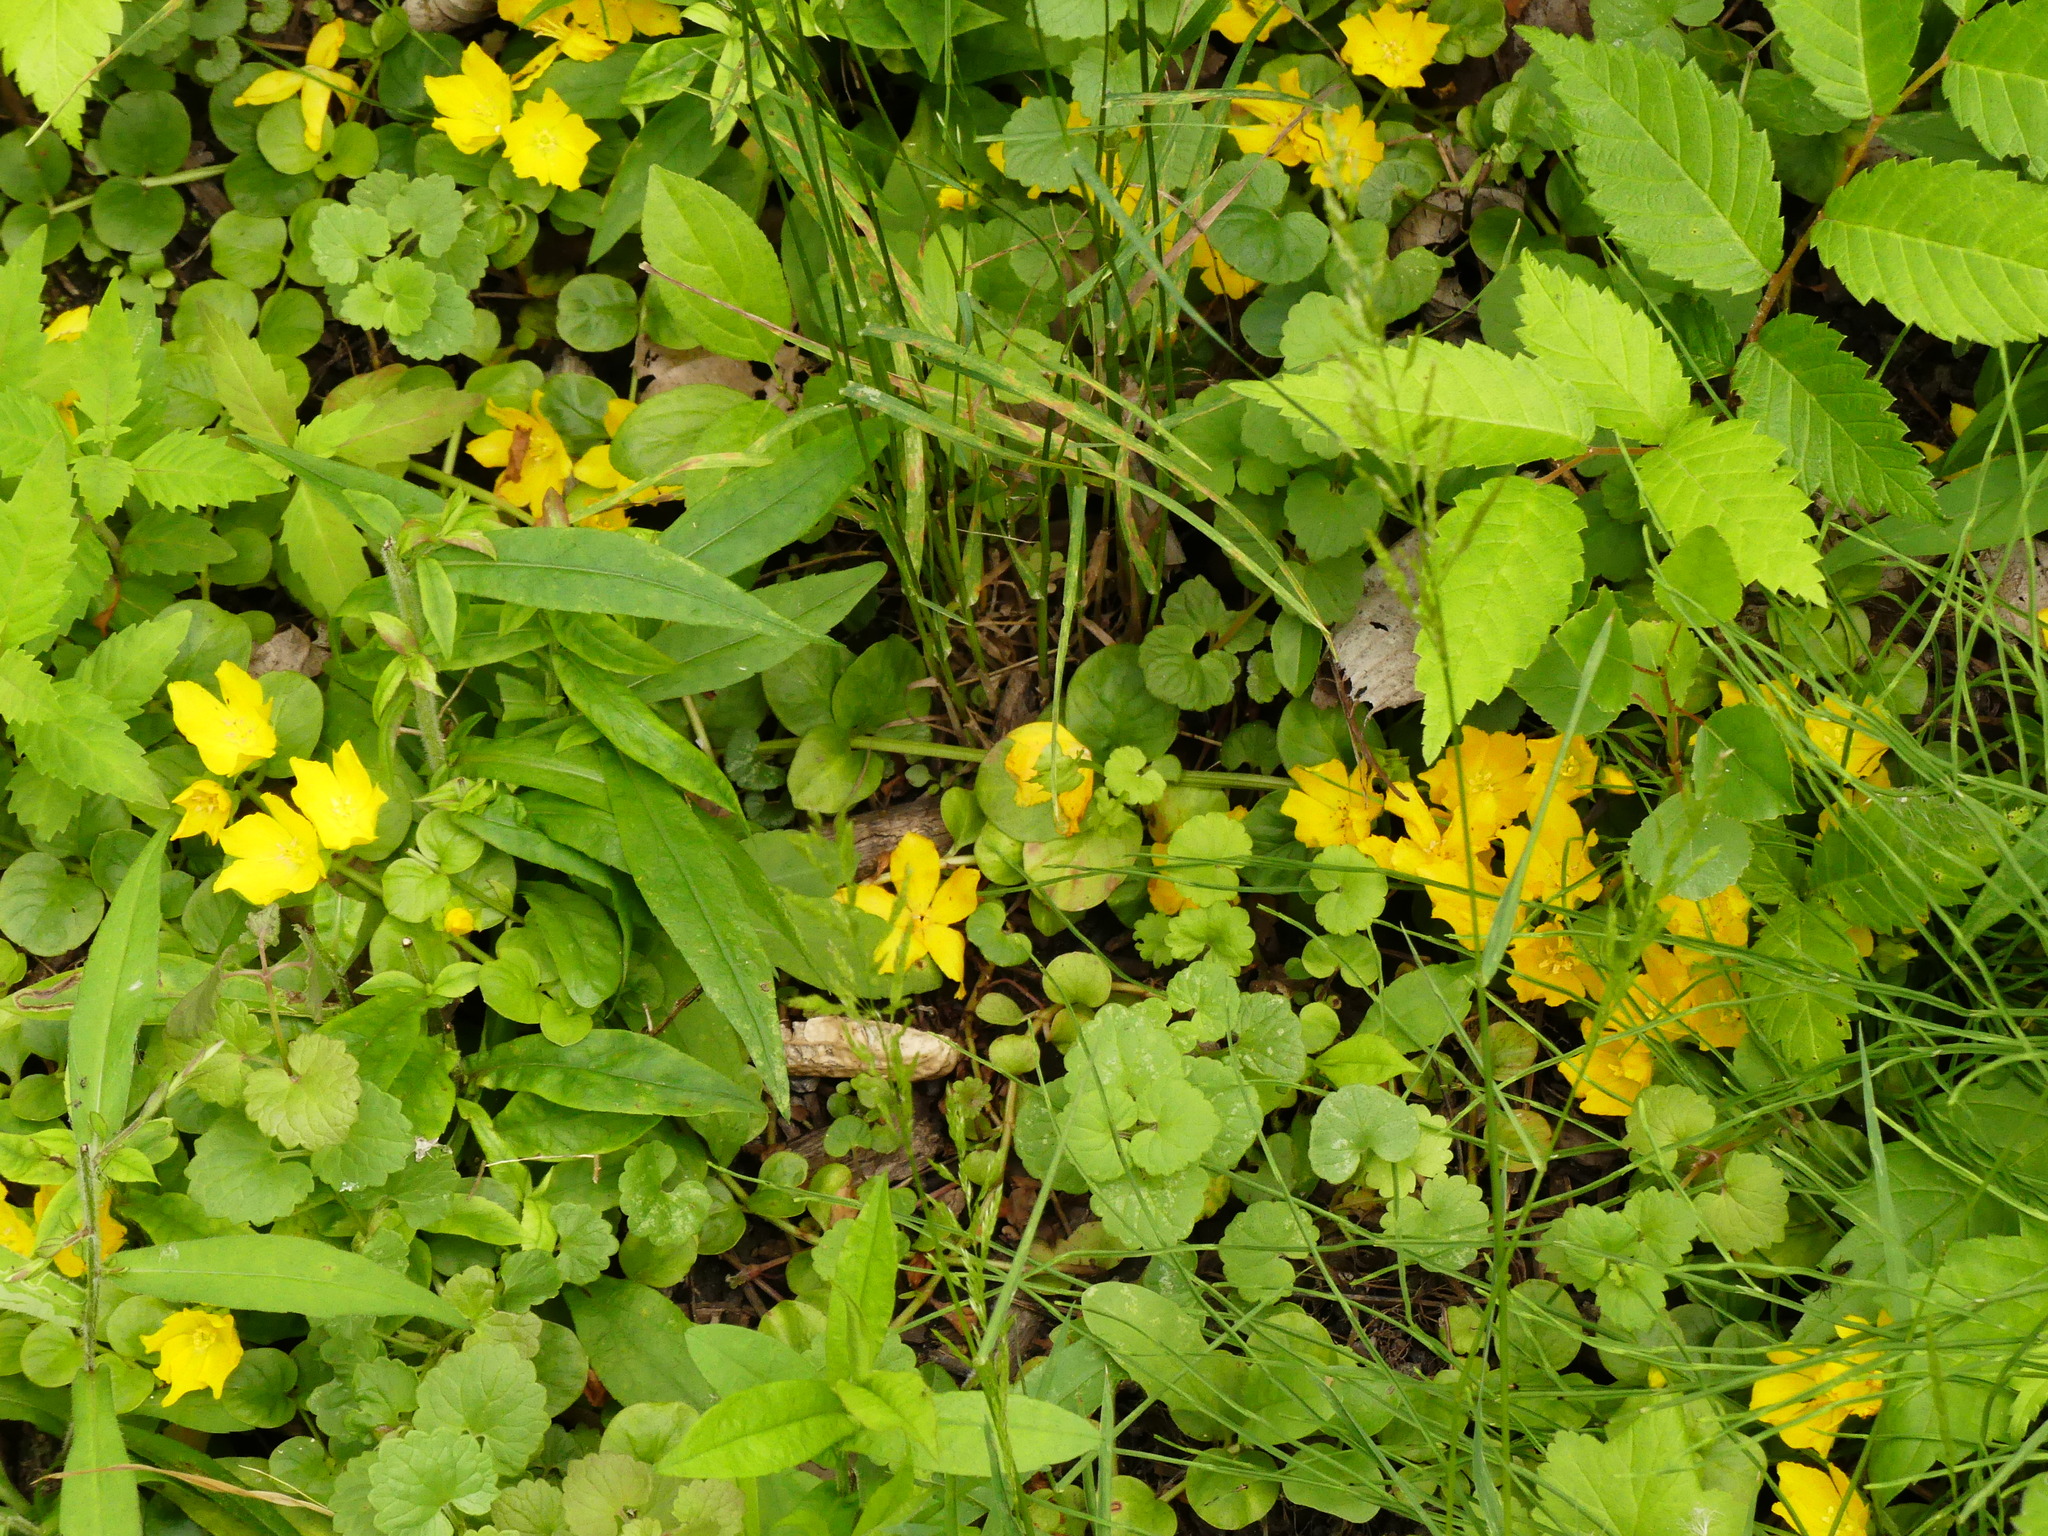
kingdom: Plantae
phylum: Tracheophyta
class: Magnoliopsida
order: Ericales
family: Primulaceae
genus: Lysimachia
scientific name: Lysimachia nummularia
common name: Moneywort
